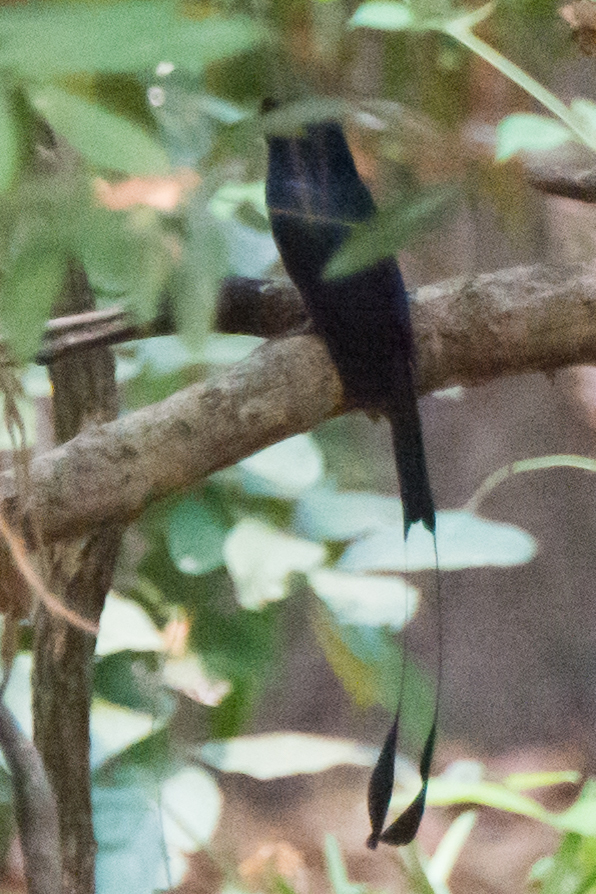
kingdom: Animalia
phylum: Chordata
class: Aves
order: Passeriformes
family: Dicruridae
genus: Dicrurus
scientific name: Dicrurus paradiseus
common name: Greater racket-tailed drongo
